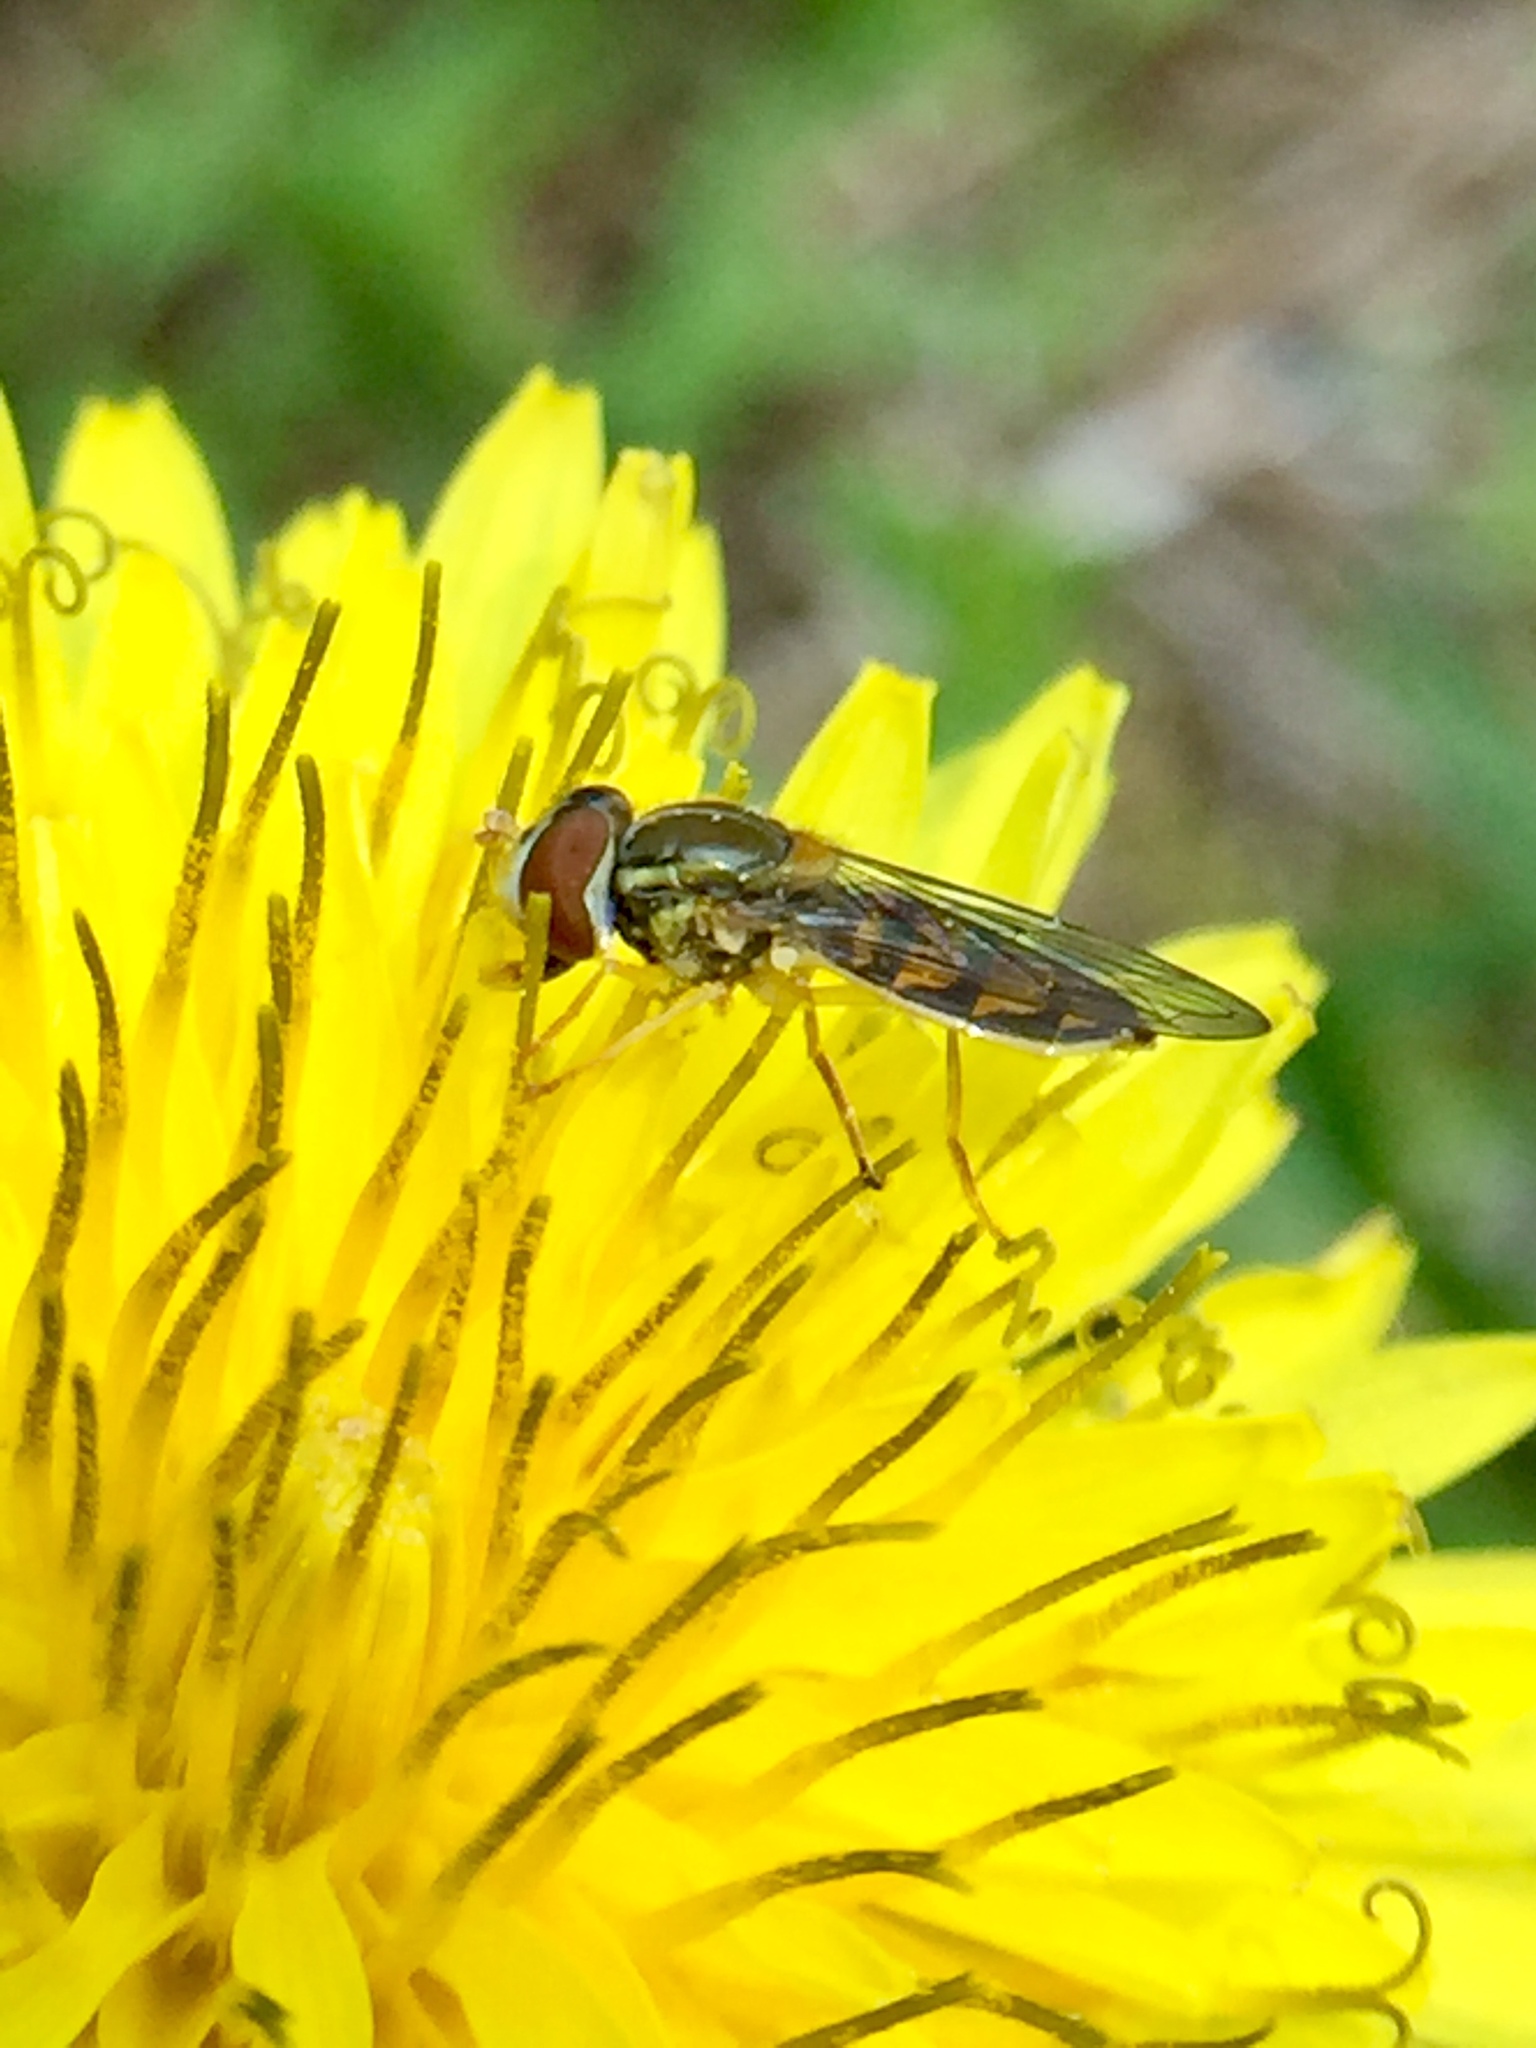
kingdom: Animalia
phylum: Arthropoda
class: Insecta
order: Diptera
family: Syrphidae
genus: Toxomerus
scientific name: Toxomerus marginatus
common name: Syrphid fly
